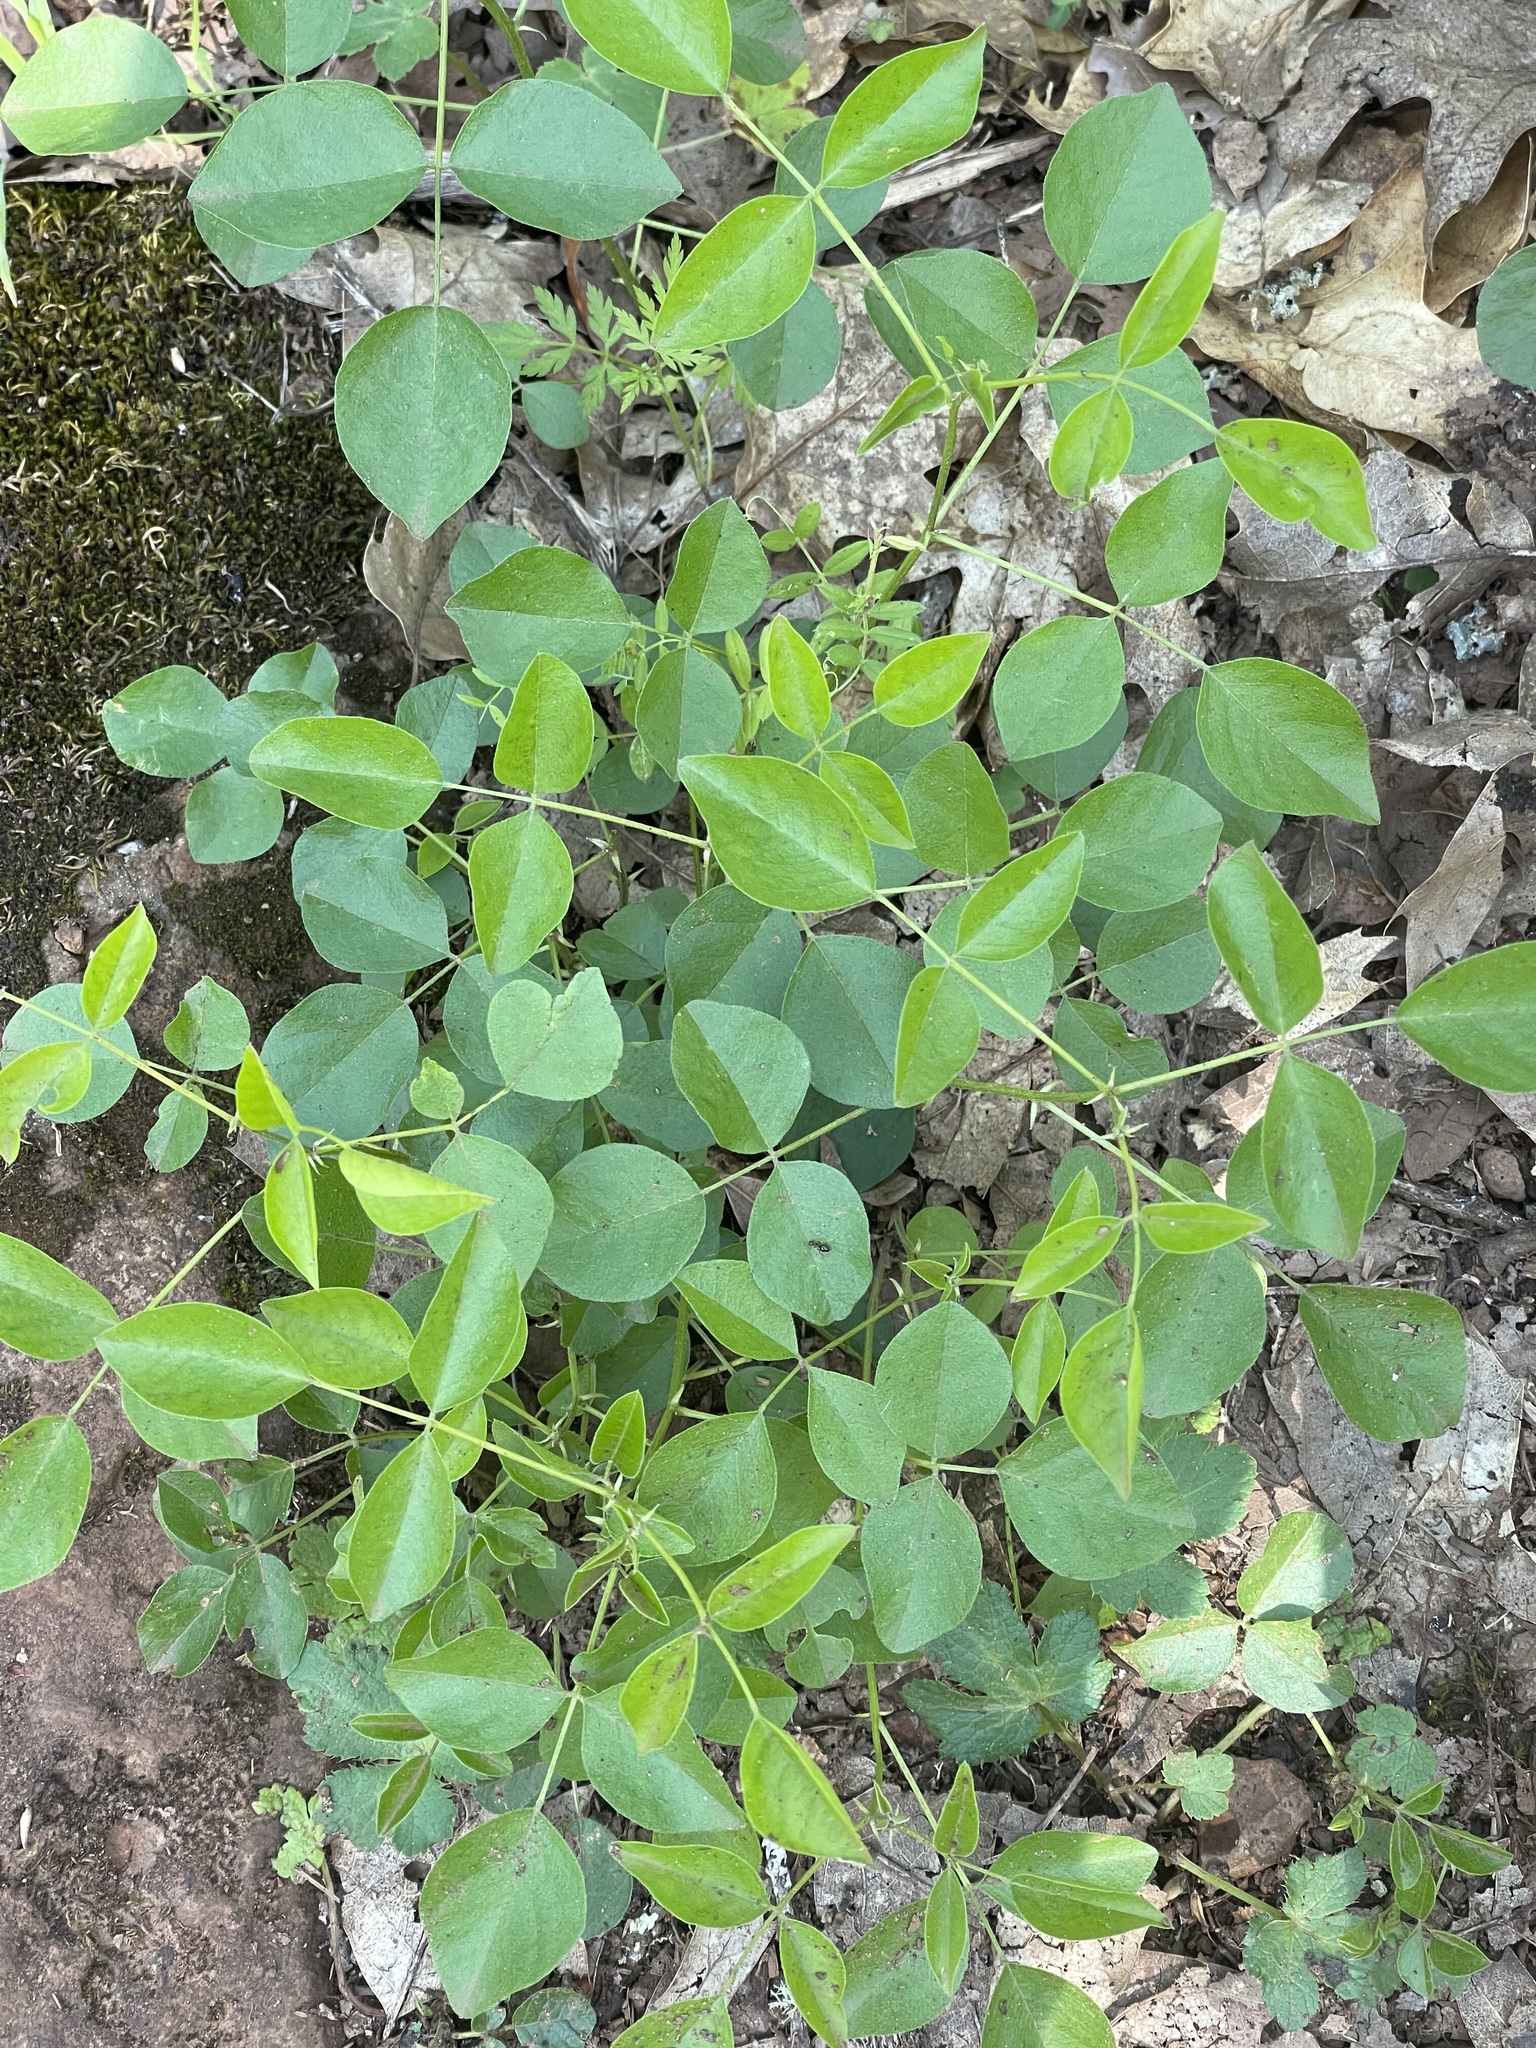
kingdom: Plantae
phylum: Tracheophyta
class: Magnoliopsida
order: Fabales
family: Fabaceae
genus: Rupertia
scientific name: Rupertia physodes
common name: California-tea
